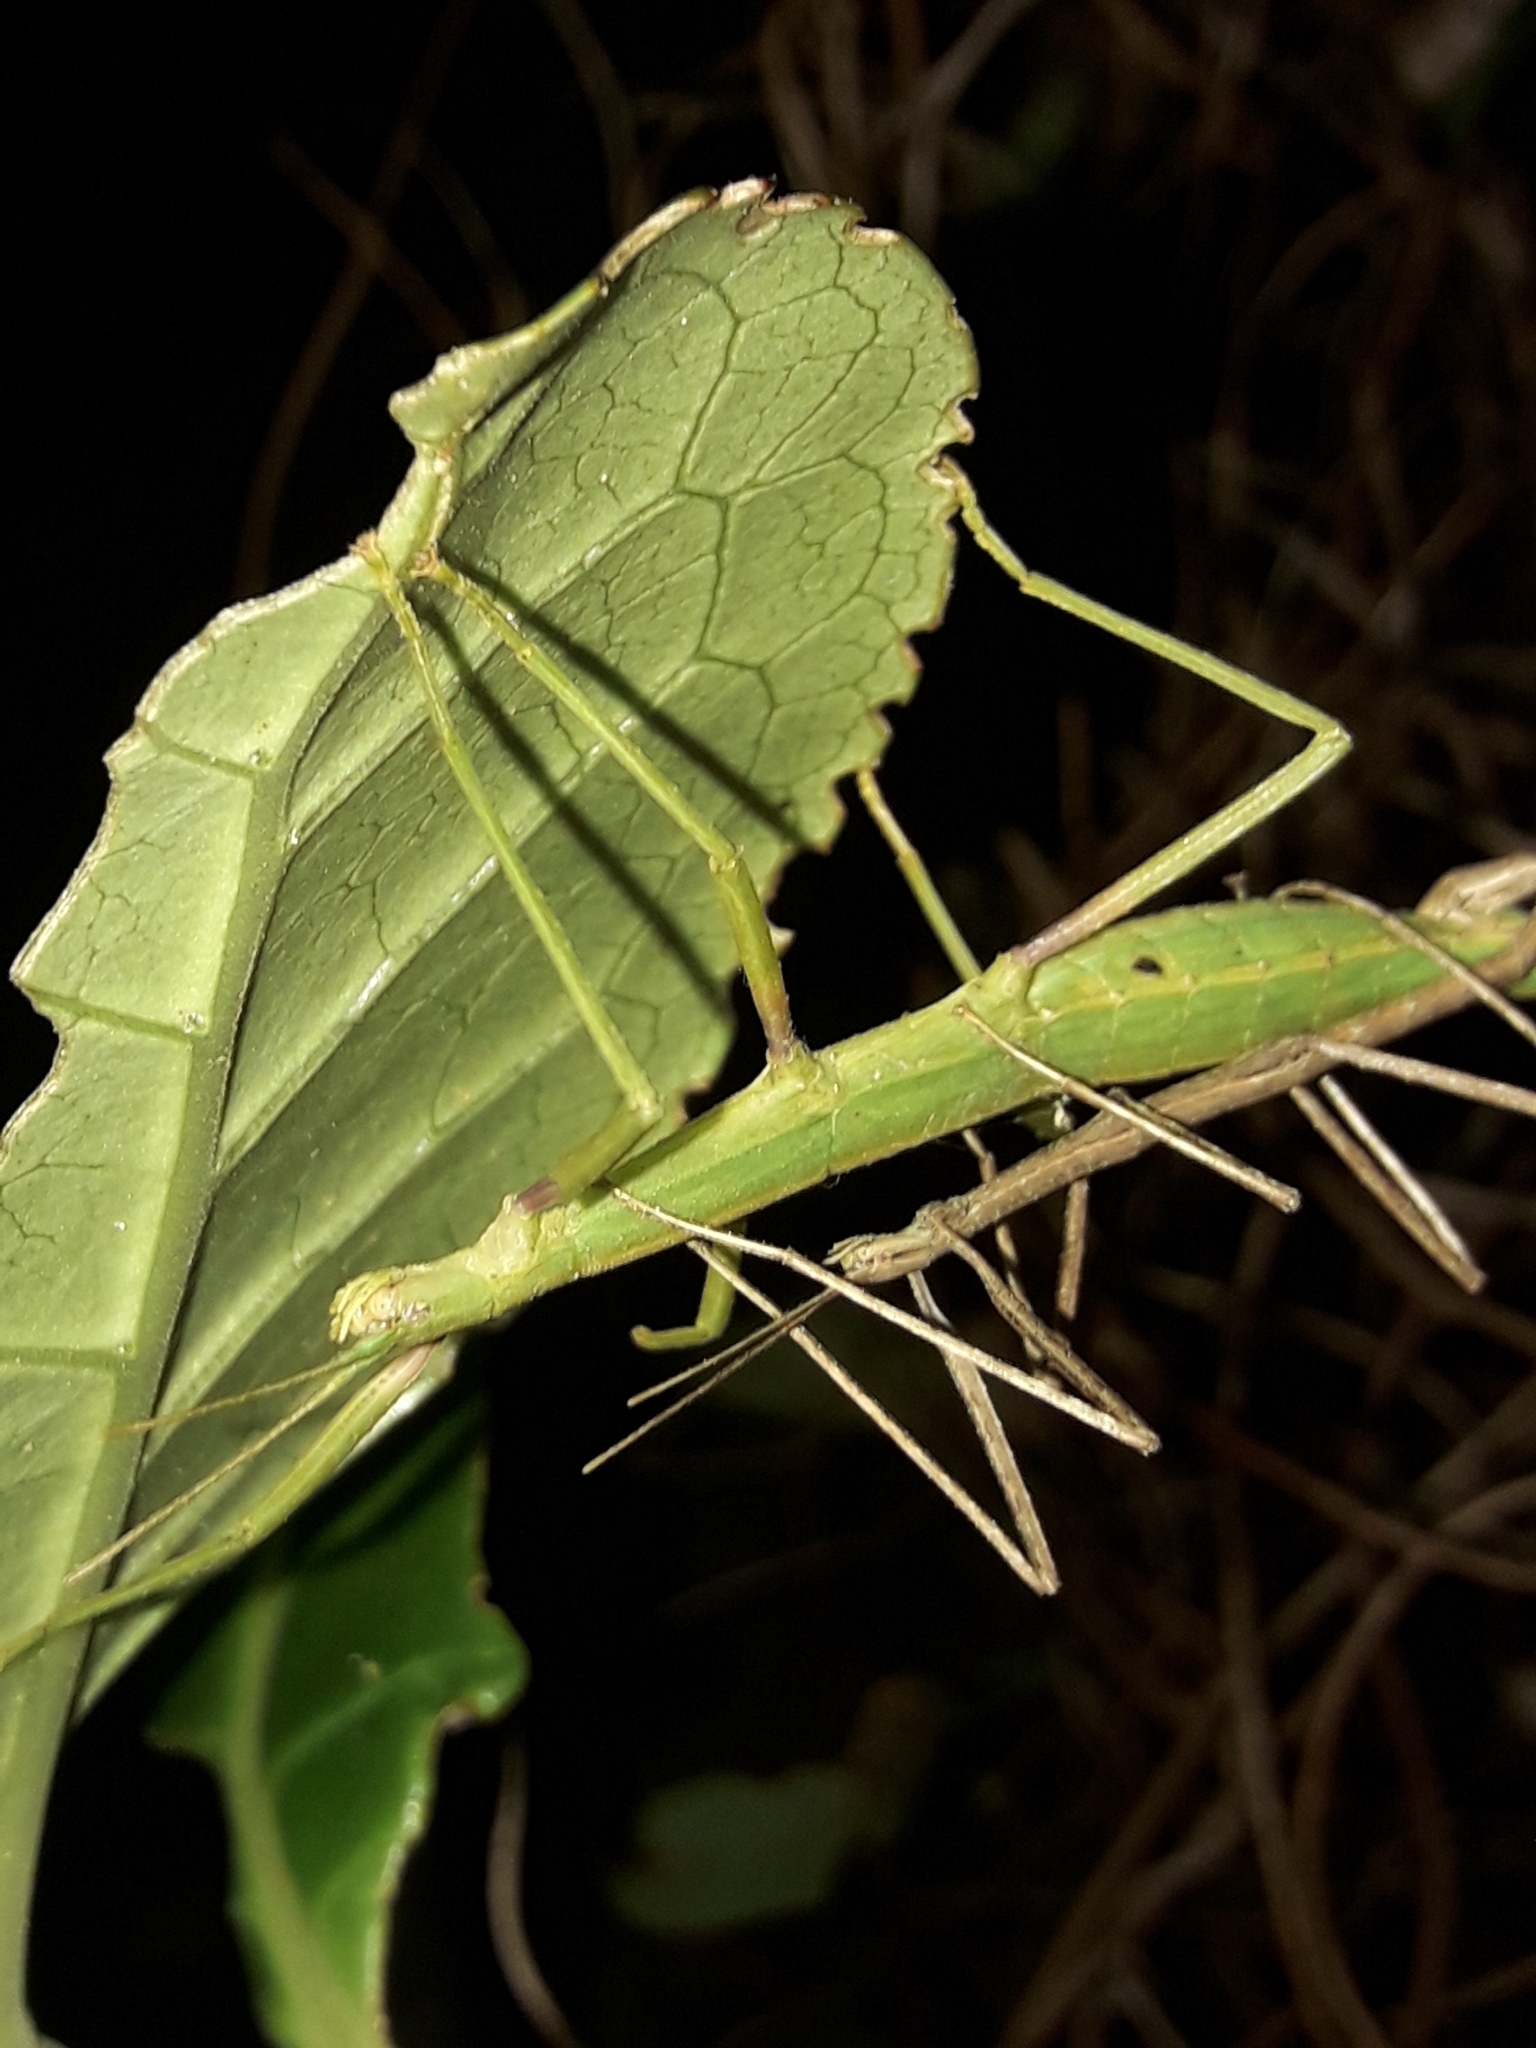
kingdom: Animalia
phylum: Arthropoda
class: Insecta
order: Phasmida
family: Phasmatidae
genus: Tectarchus
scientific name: Tectarchus huttoni
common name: The common ridge-backed stick insect
